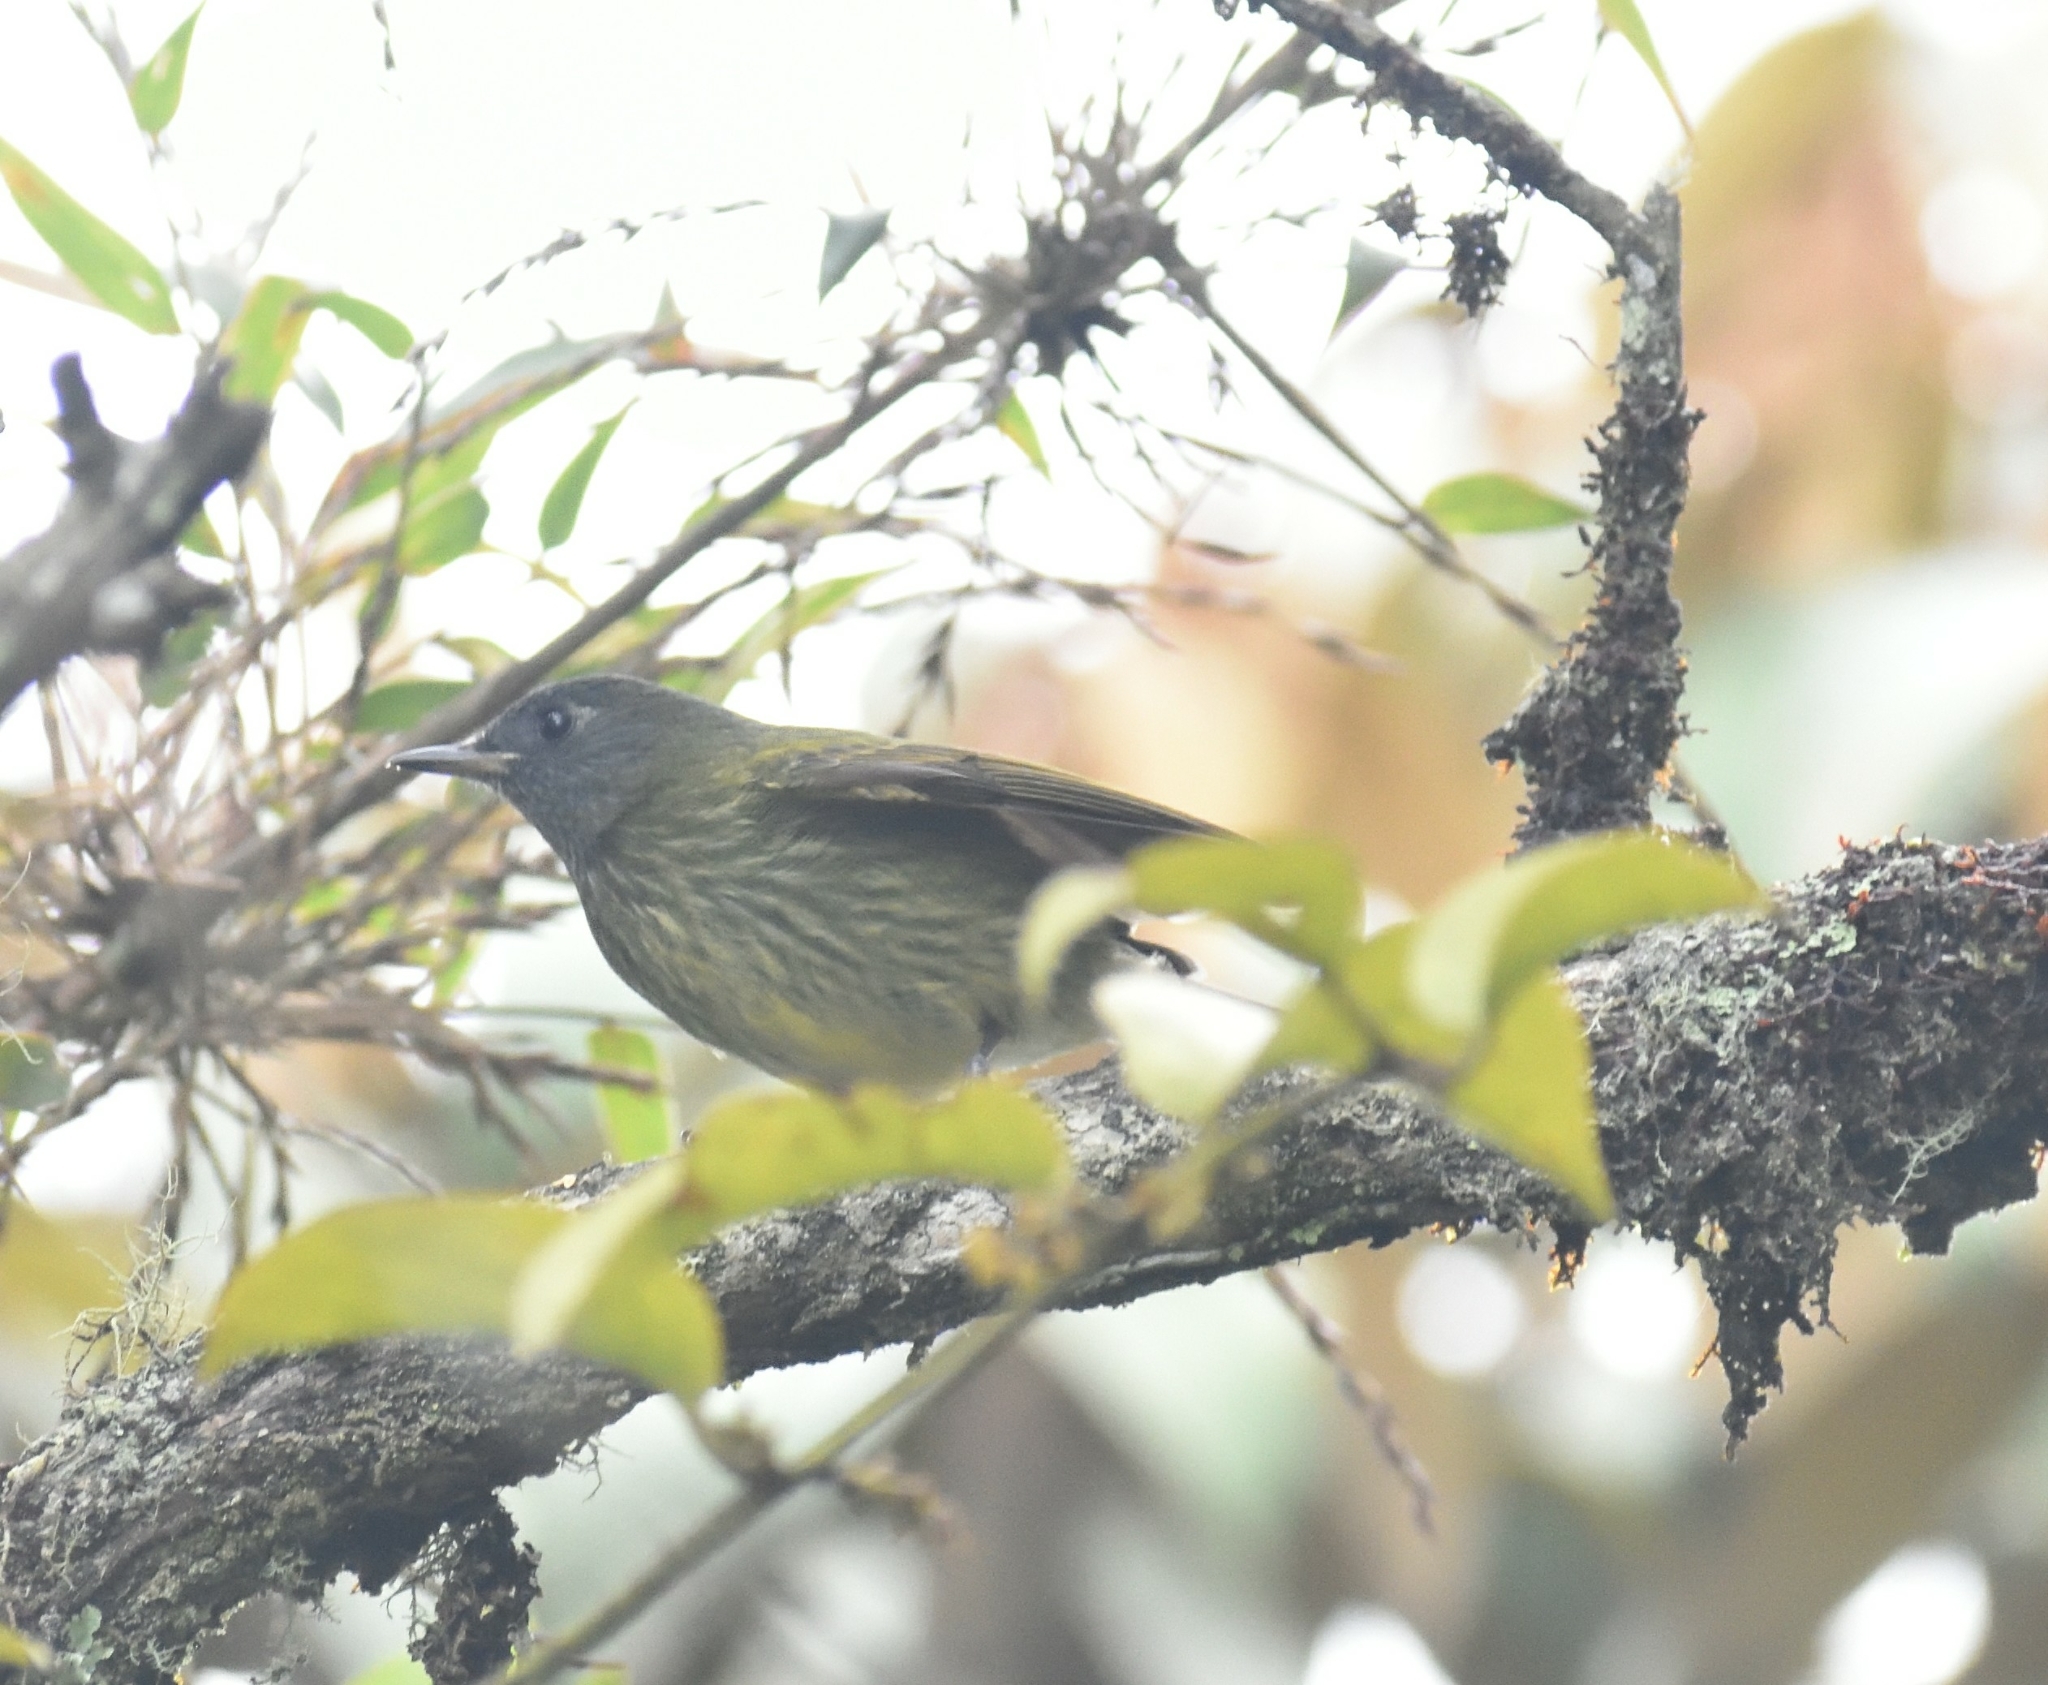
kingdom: Animalia
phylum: Chordata
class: Aves
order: Passeriformes
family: Tyrannidae
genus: Mionectes
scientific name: Mionectes striaticollis
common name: Streak-necked flycatcher
